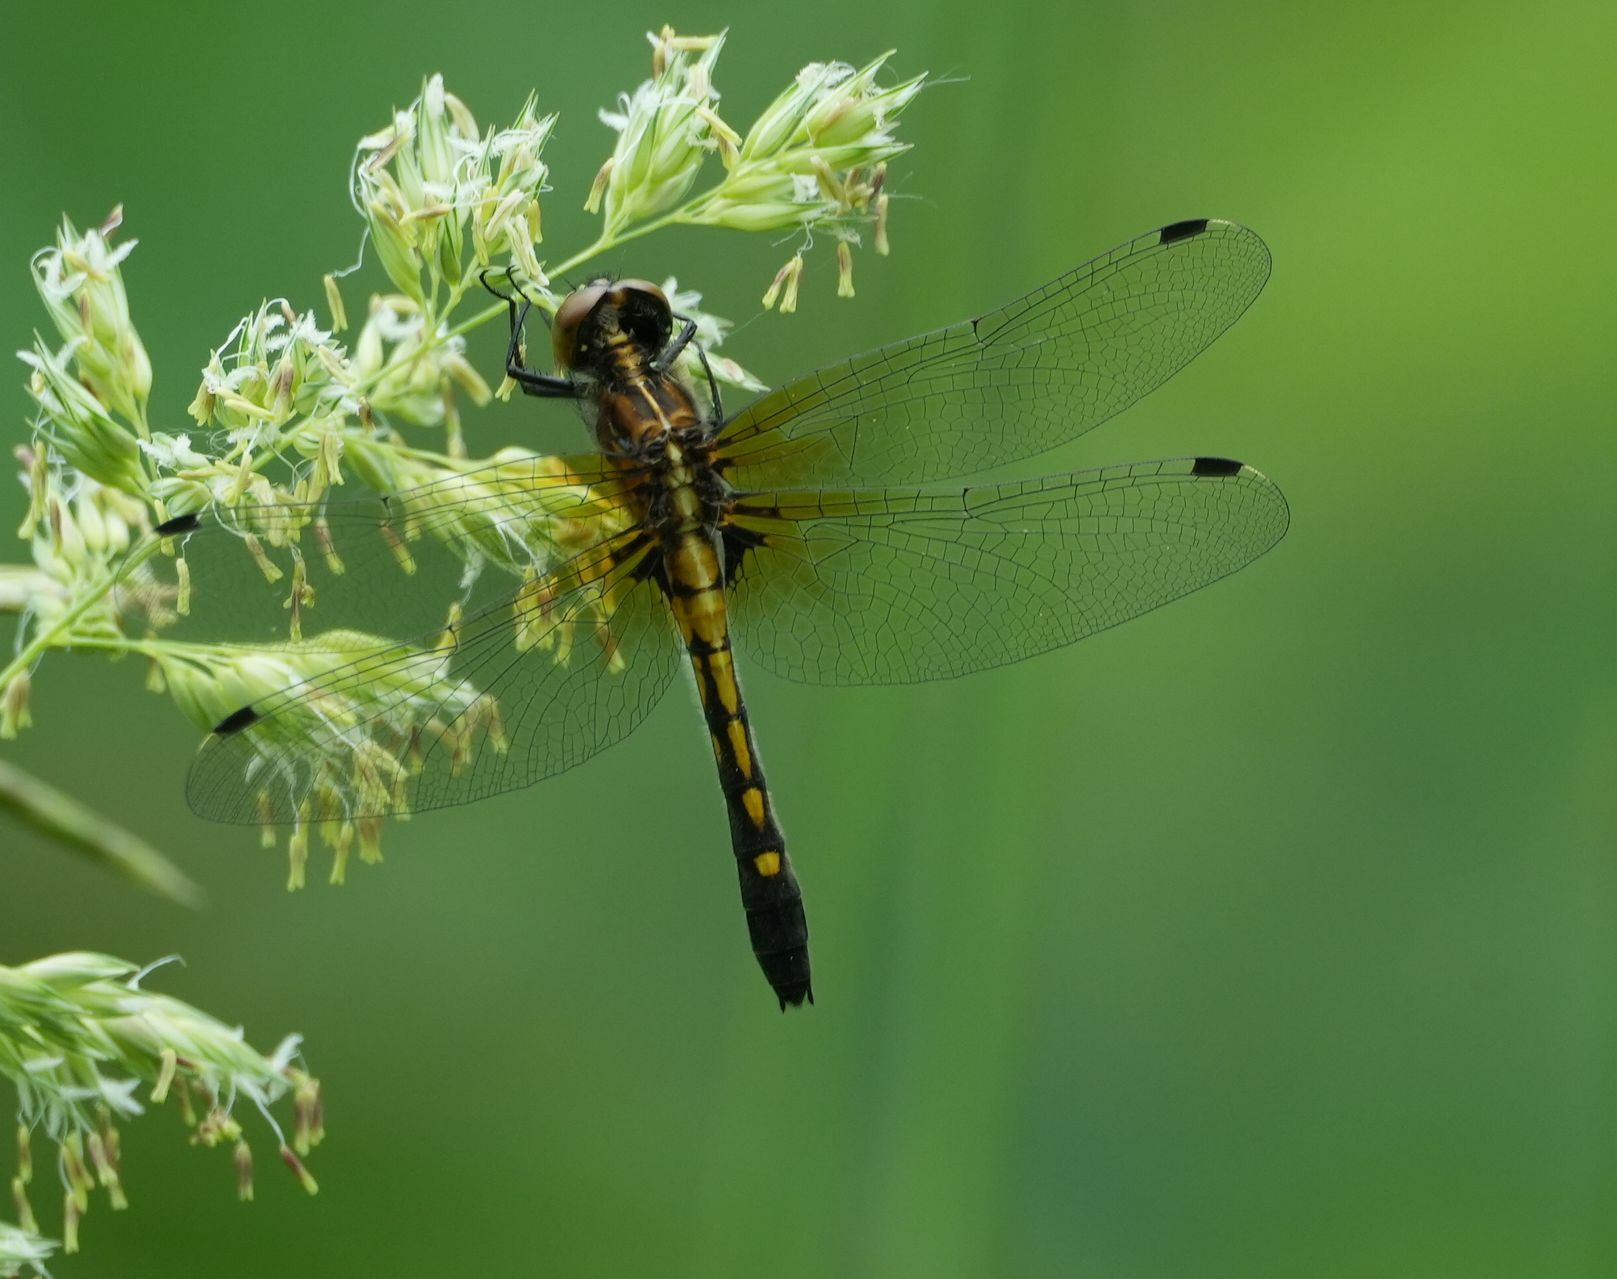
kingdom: Animalia
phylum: Arthropoda
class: Insecta
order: Odonata
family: Libellulidae
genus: Leucorrhinia
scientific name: Leucorrhinia intacta
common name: Dot-tailed whiteface
